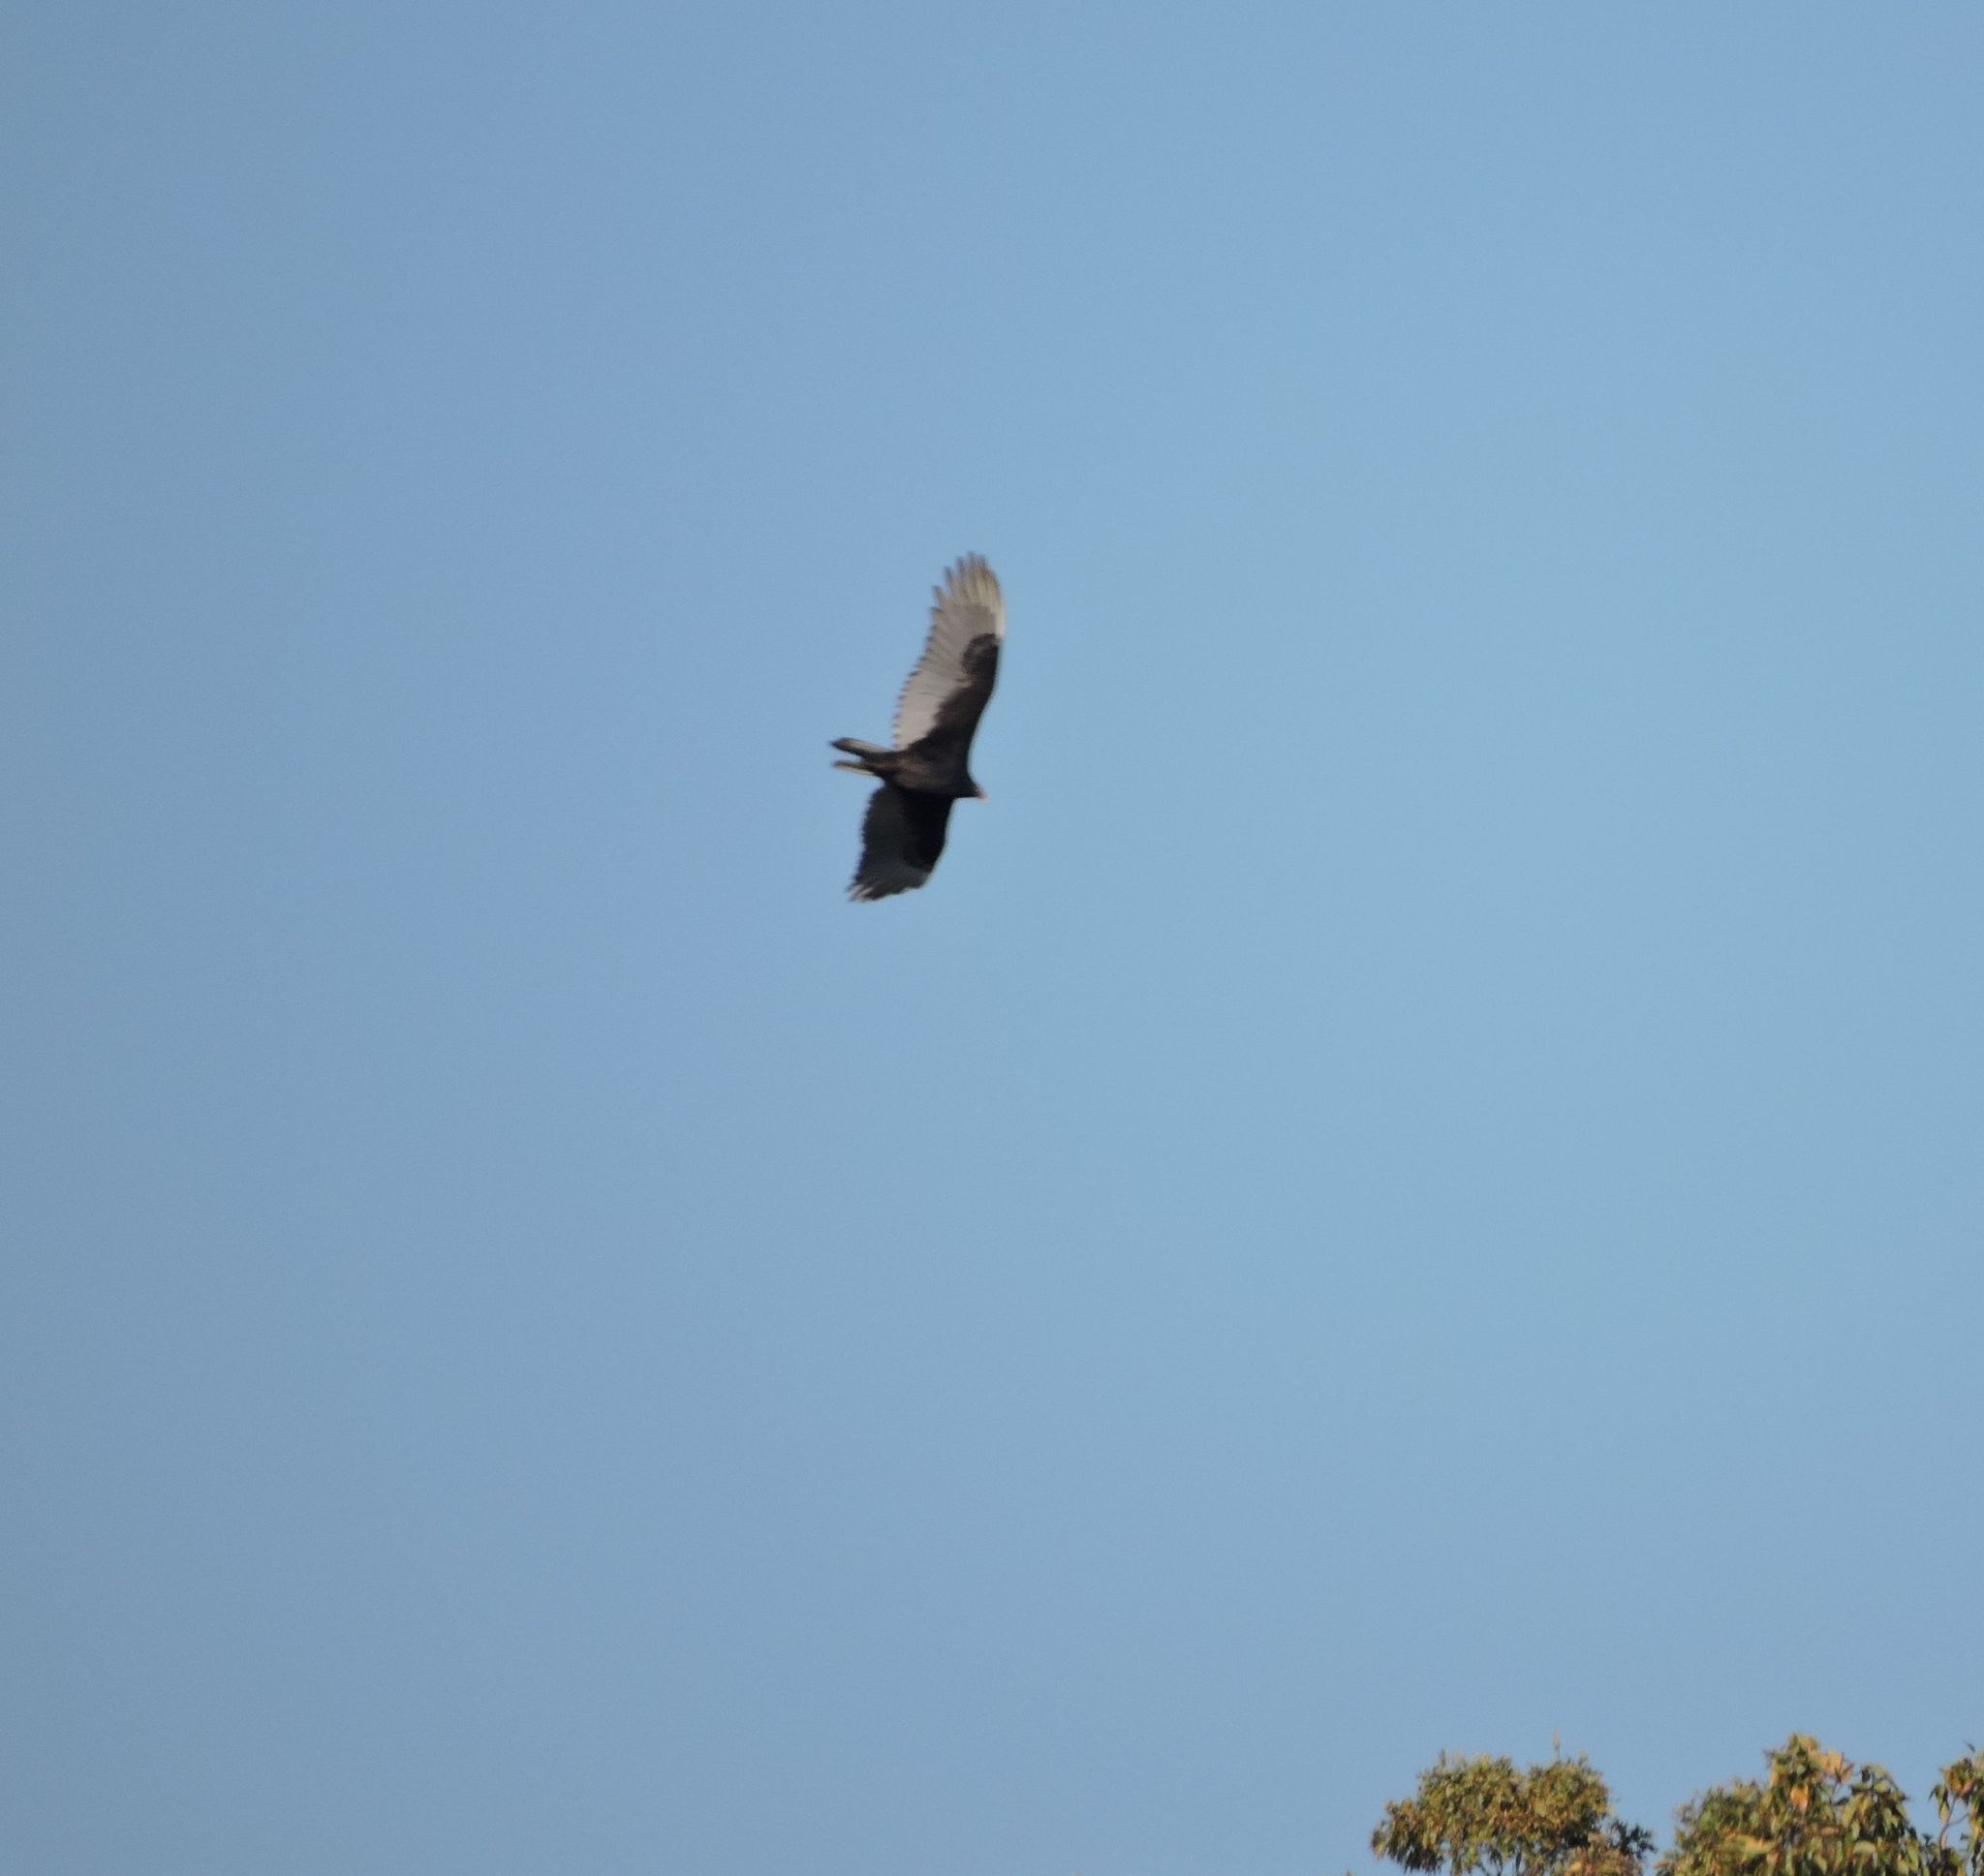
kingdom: Animalia
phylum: Chordata
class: Aves
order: Accipitriformes
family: Cathartidae
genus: Cathartes
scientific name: Cathartes aura
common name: Turkey vulture
